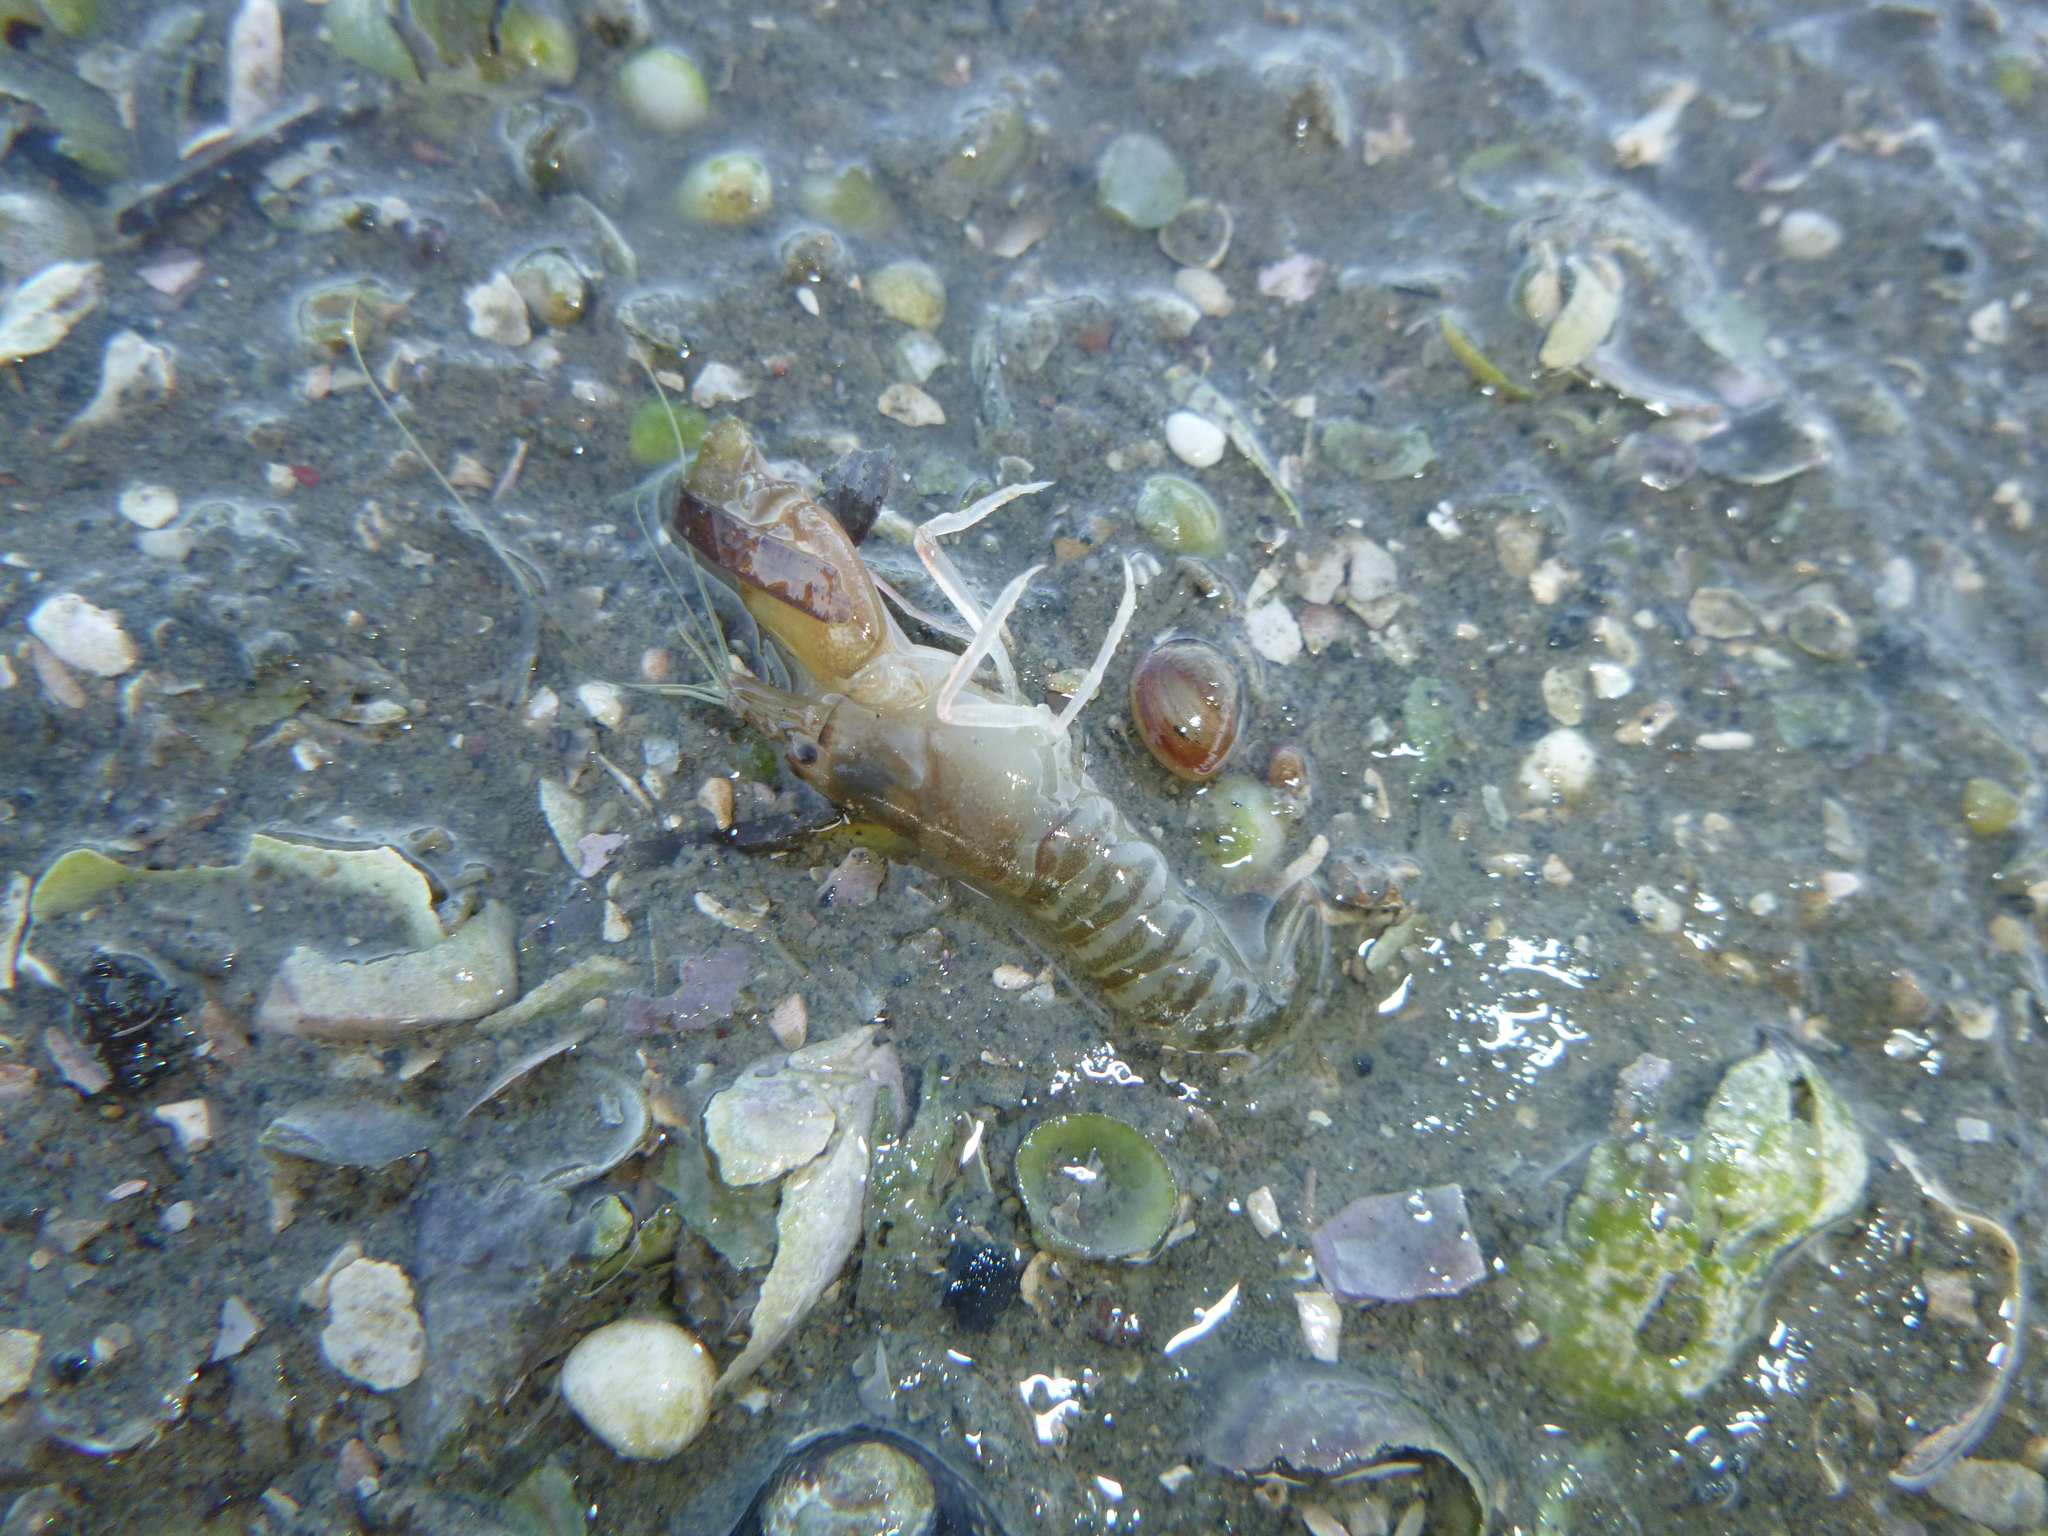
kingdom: Animalia
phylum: Arthropoda
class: Malacostraca
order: Decapoda
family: Alpheidae
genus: Alpheus
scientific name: Alpheus richardsoni
